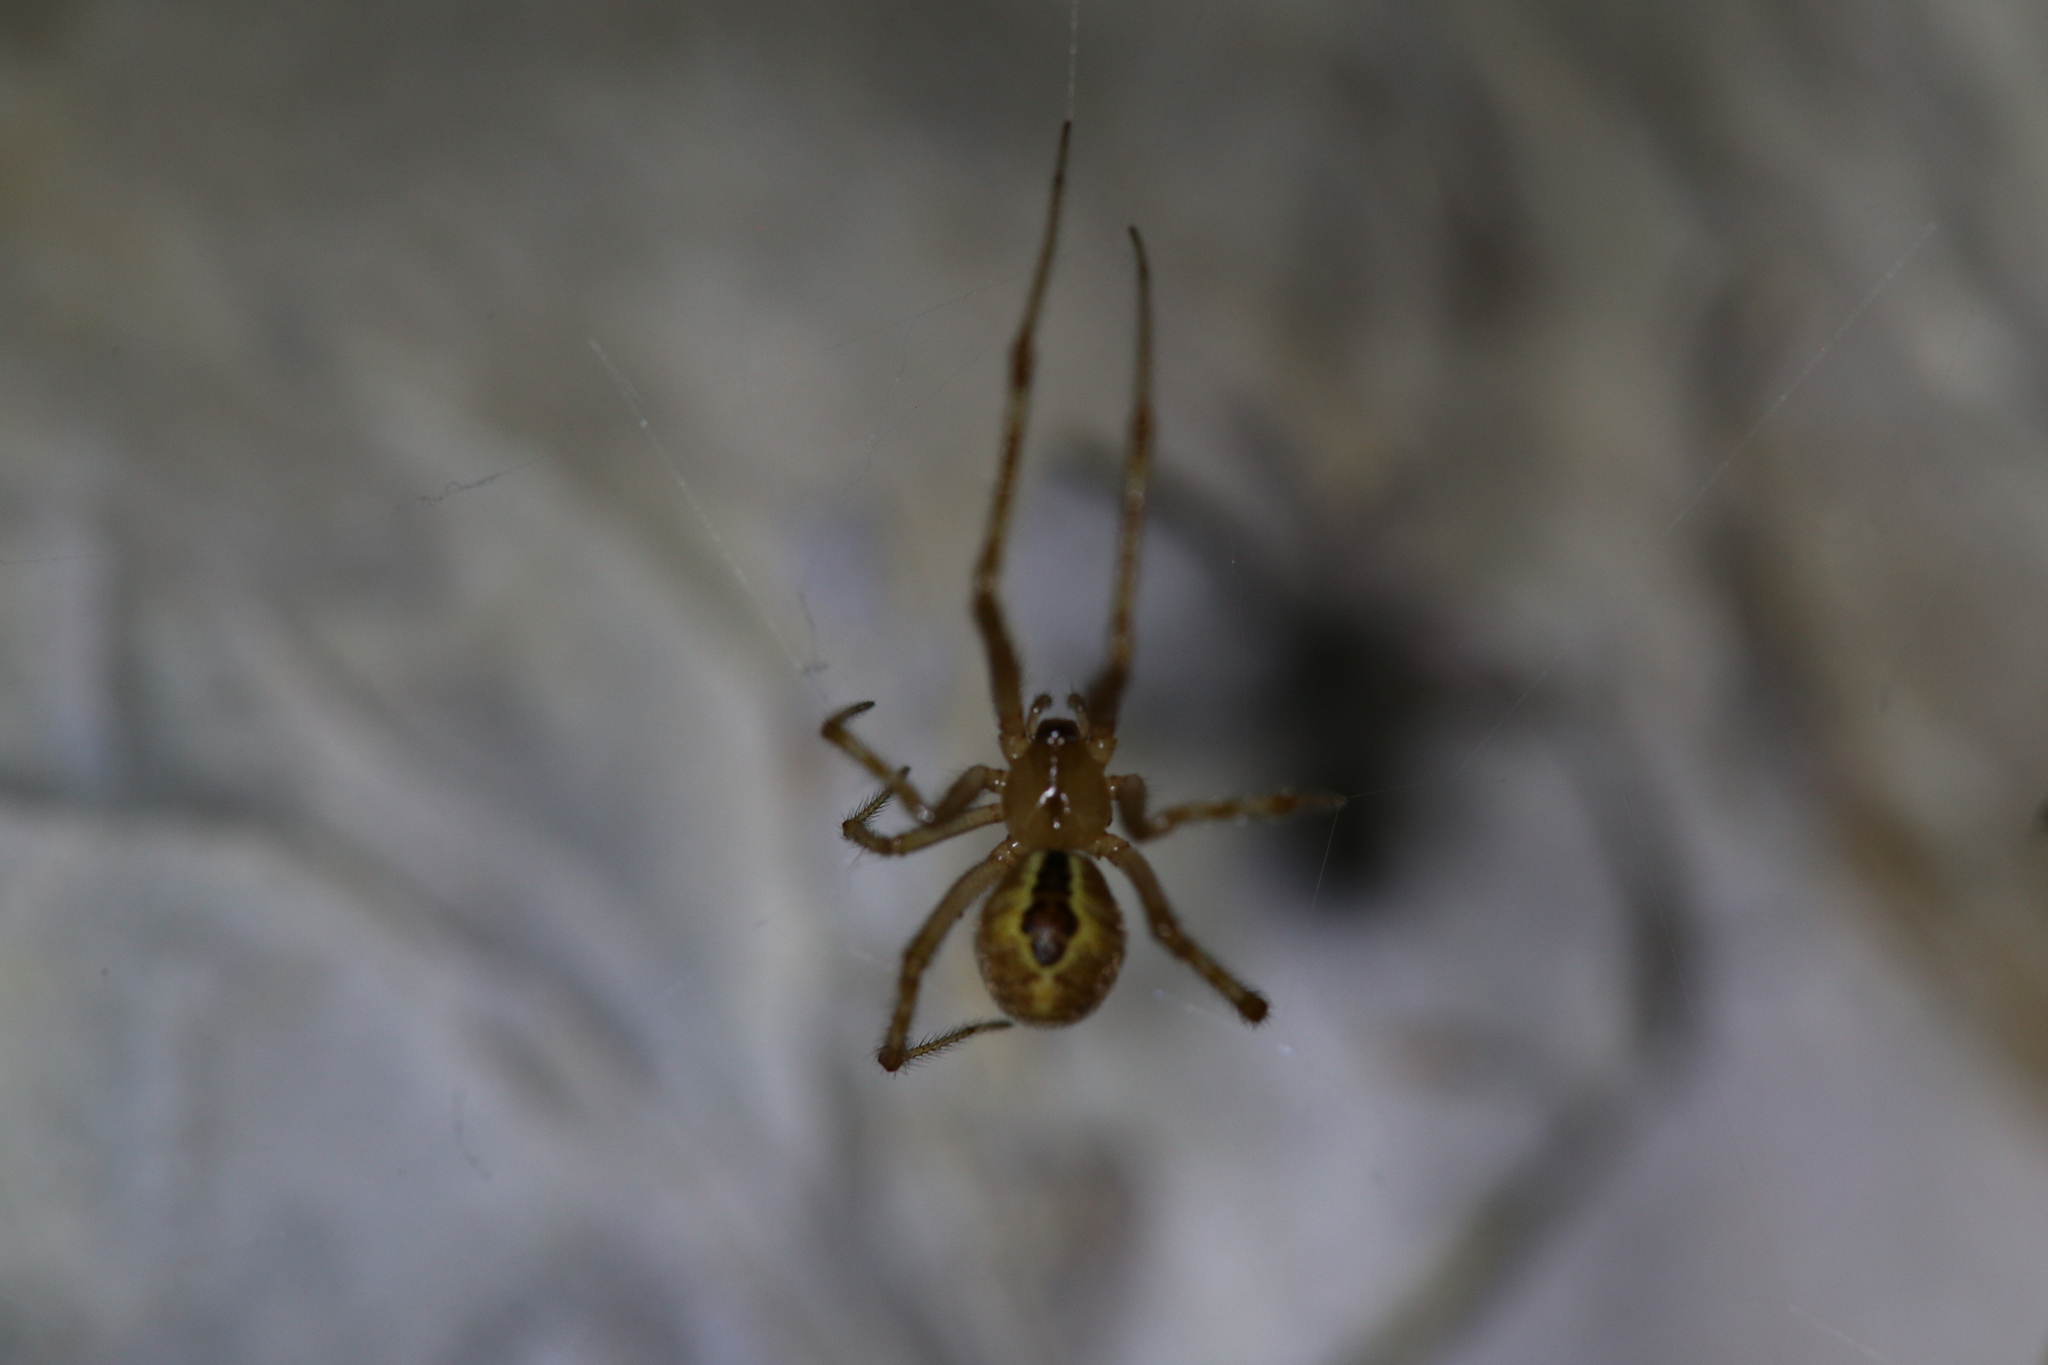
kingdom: Animalia
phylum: Arthropoda
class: Arachnida
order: Araneae
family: Theridiidae
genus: Cryptachaea
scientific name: Cryptachaea veruculata
